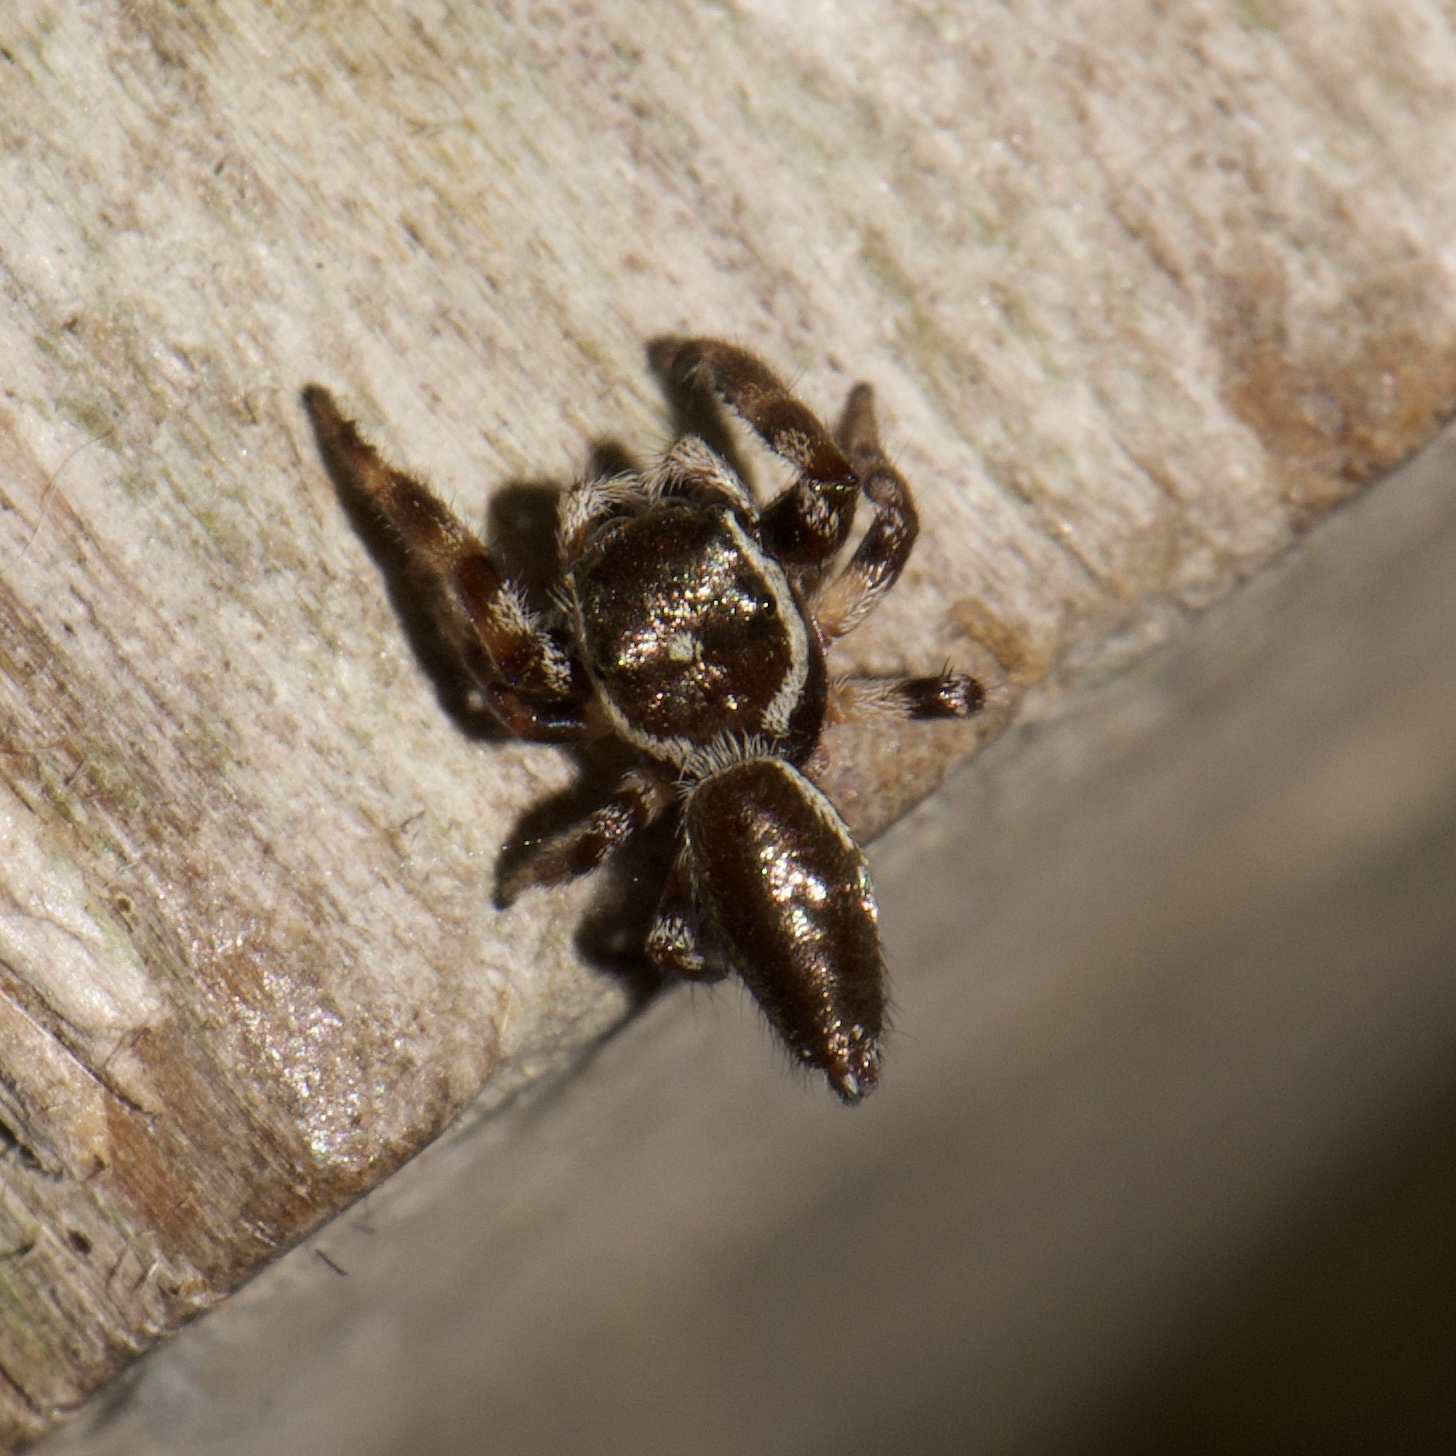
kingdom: Animalia
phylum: Arthropoda
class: Arachnida
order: Araneae
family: Salticidae
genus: Eris
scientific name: Eris floridana
